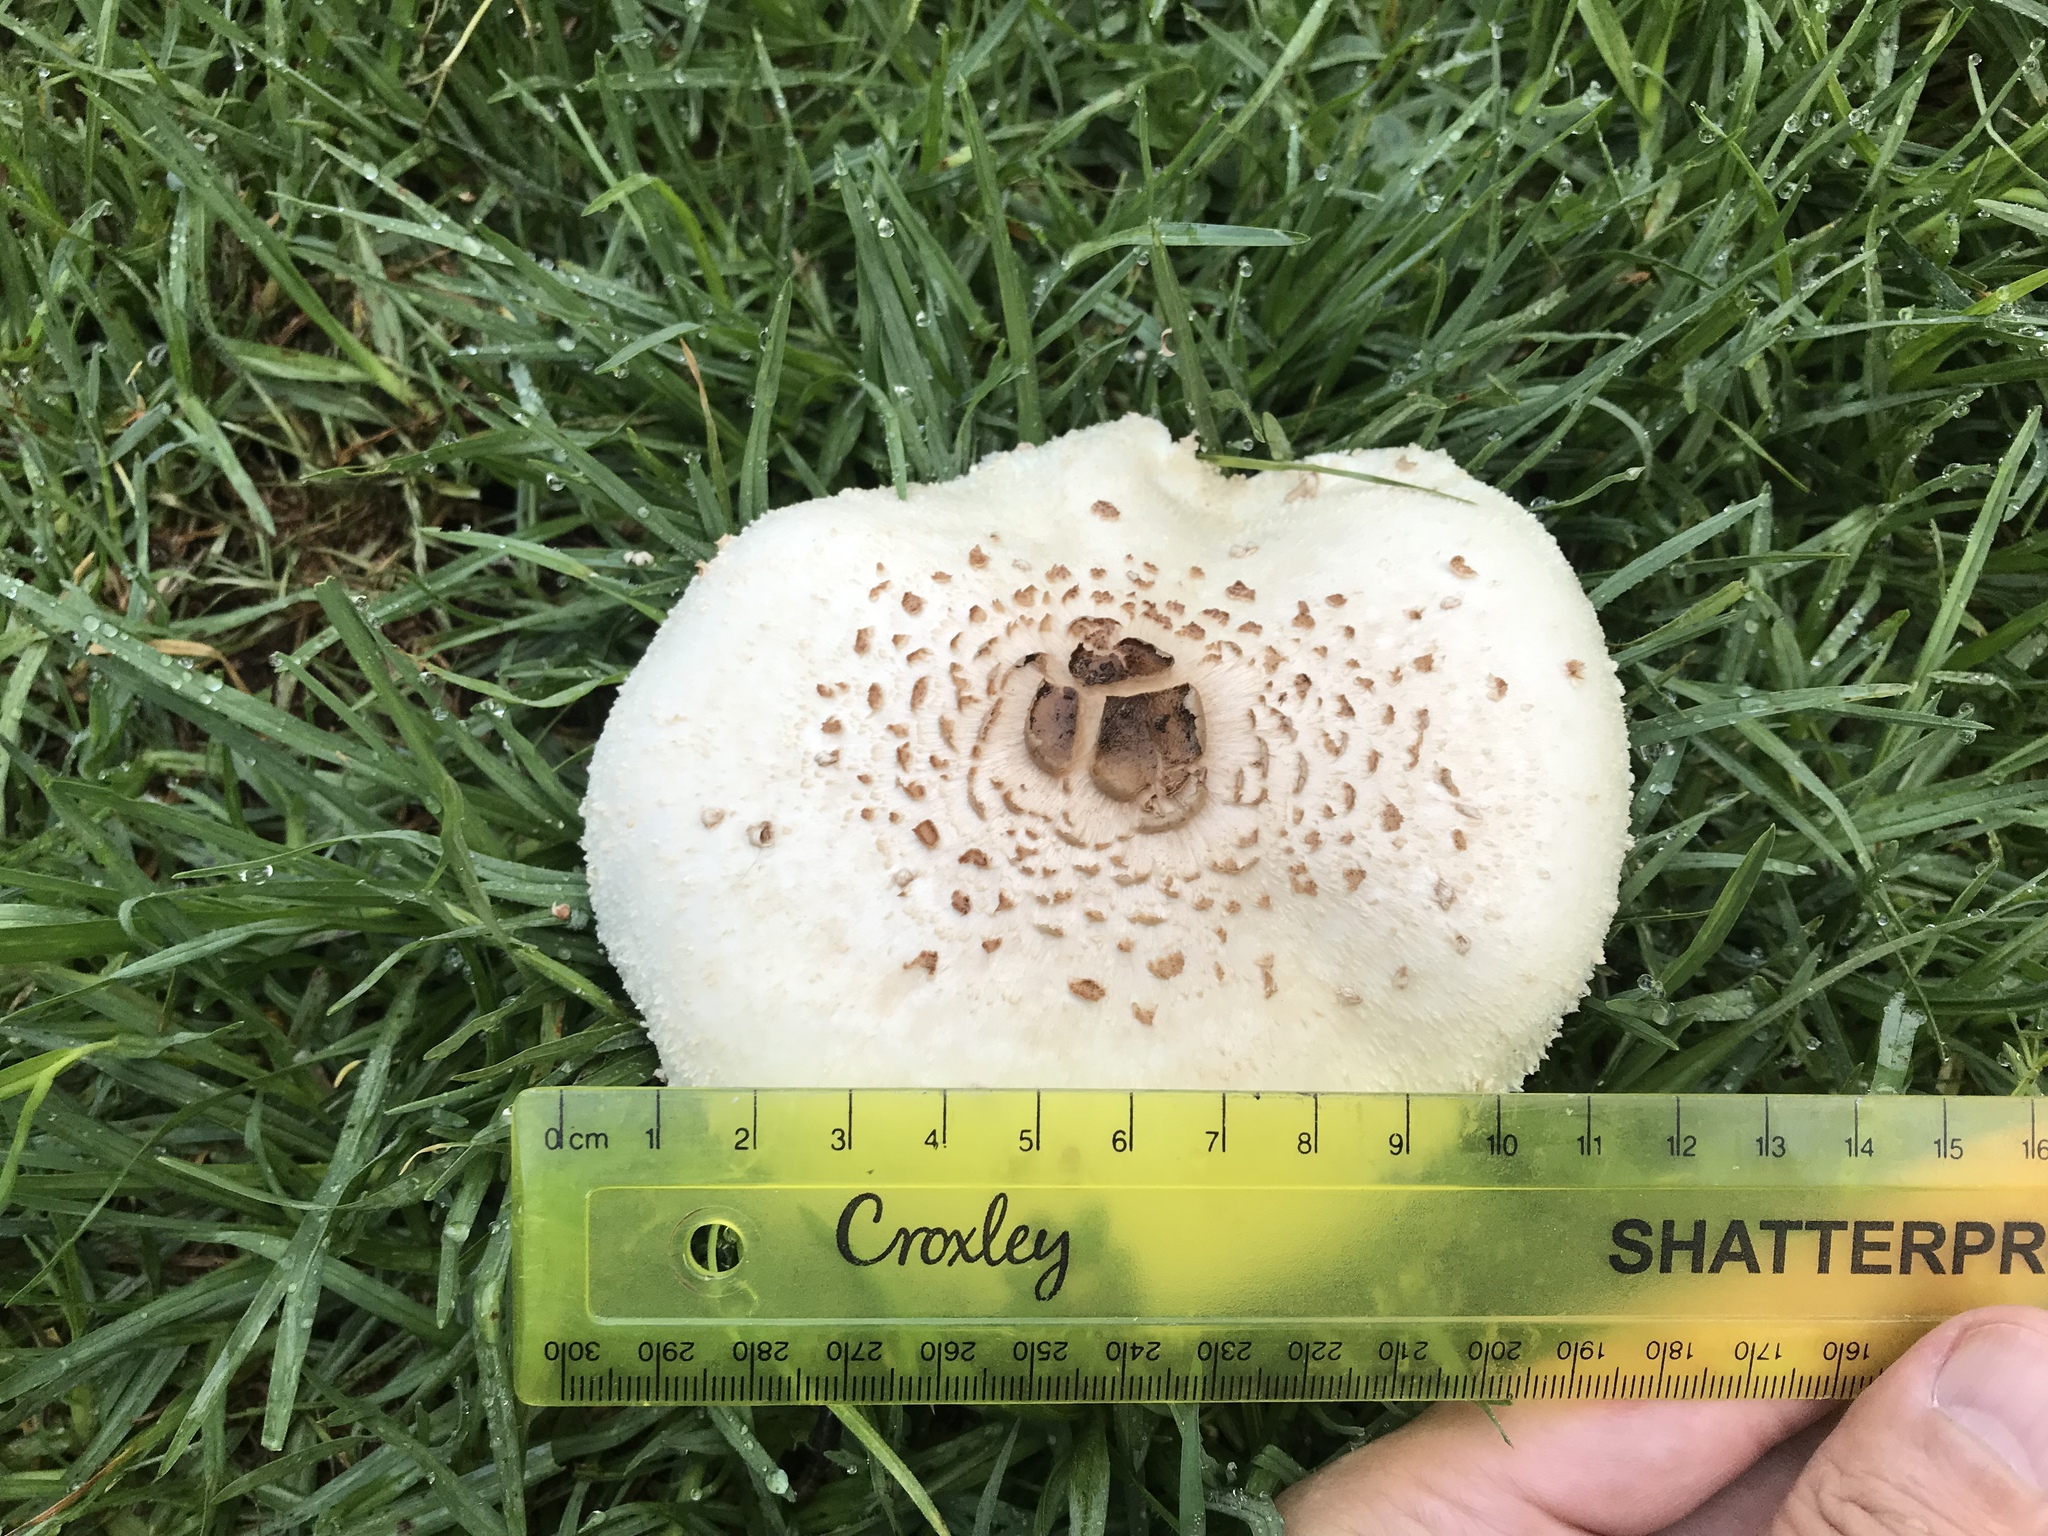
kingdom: Fungi
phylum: Basidiomycota
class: Agaricomycetes
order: Agaricales
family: Agaricaceae
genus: Chlorophyllum
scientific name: Chlorophyllum molybdites
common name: False parasol
